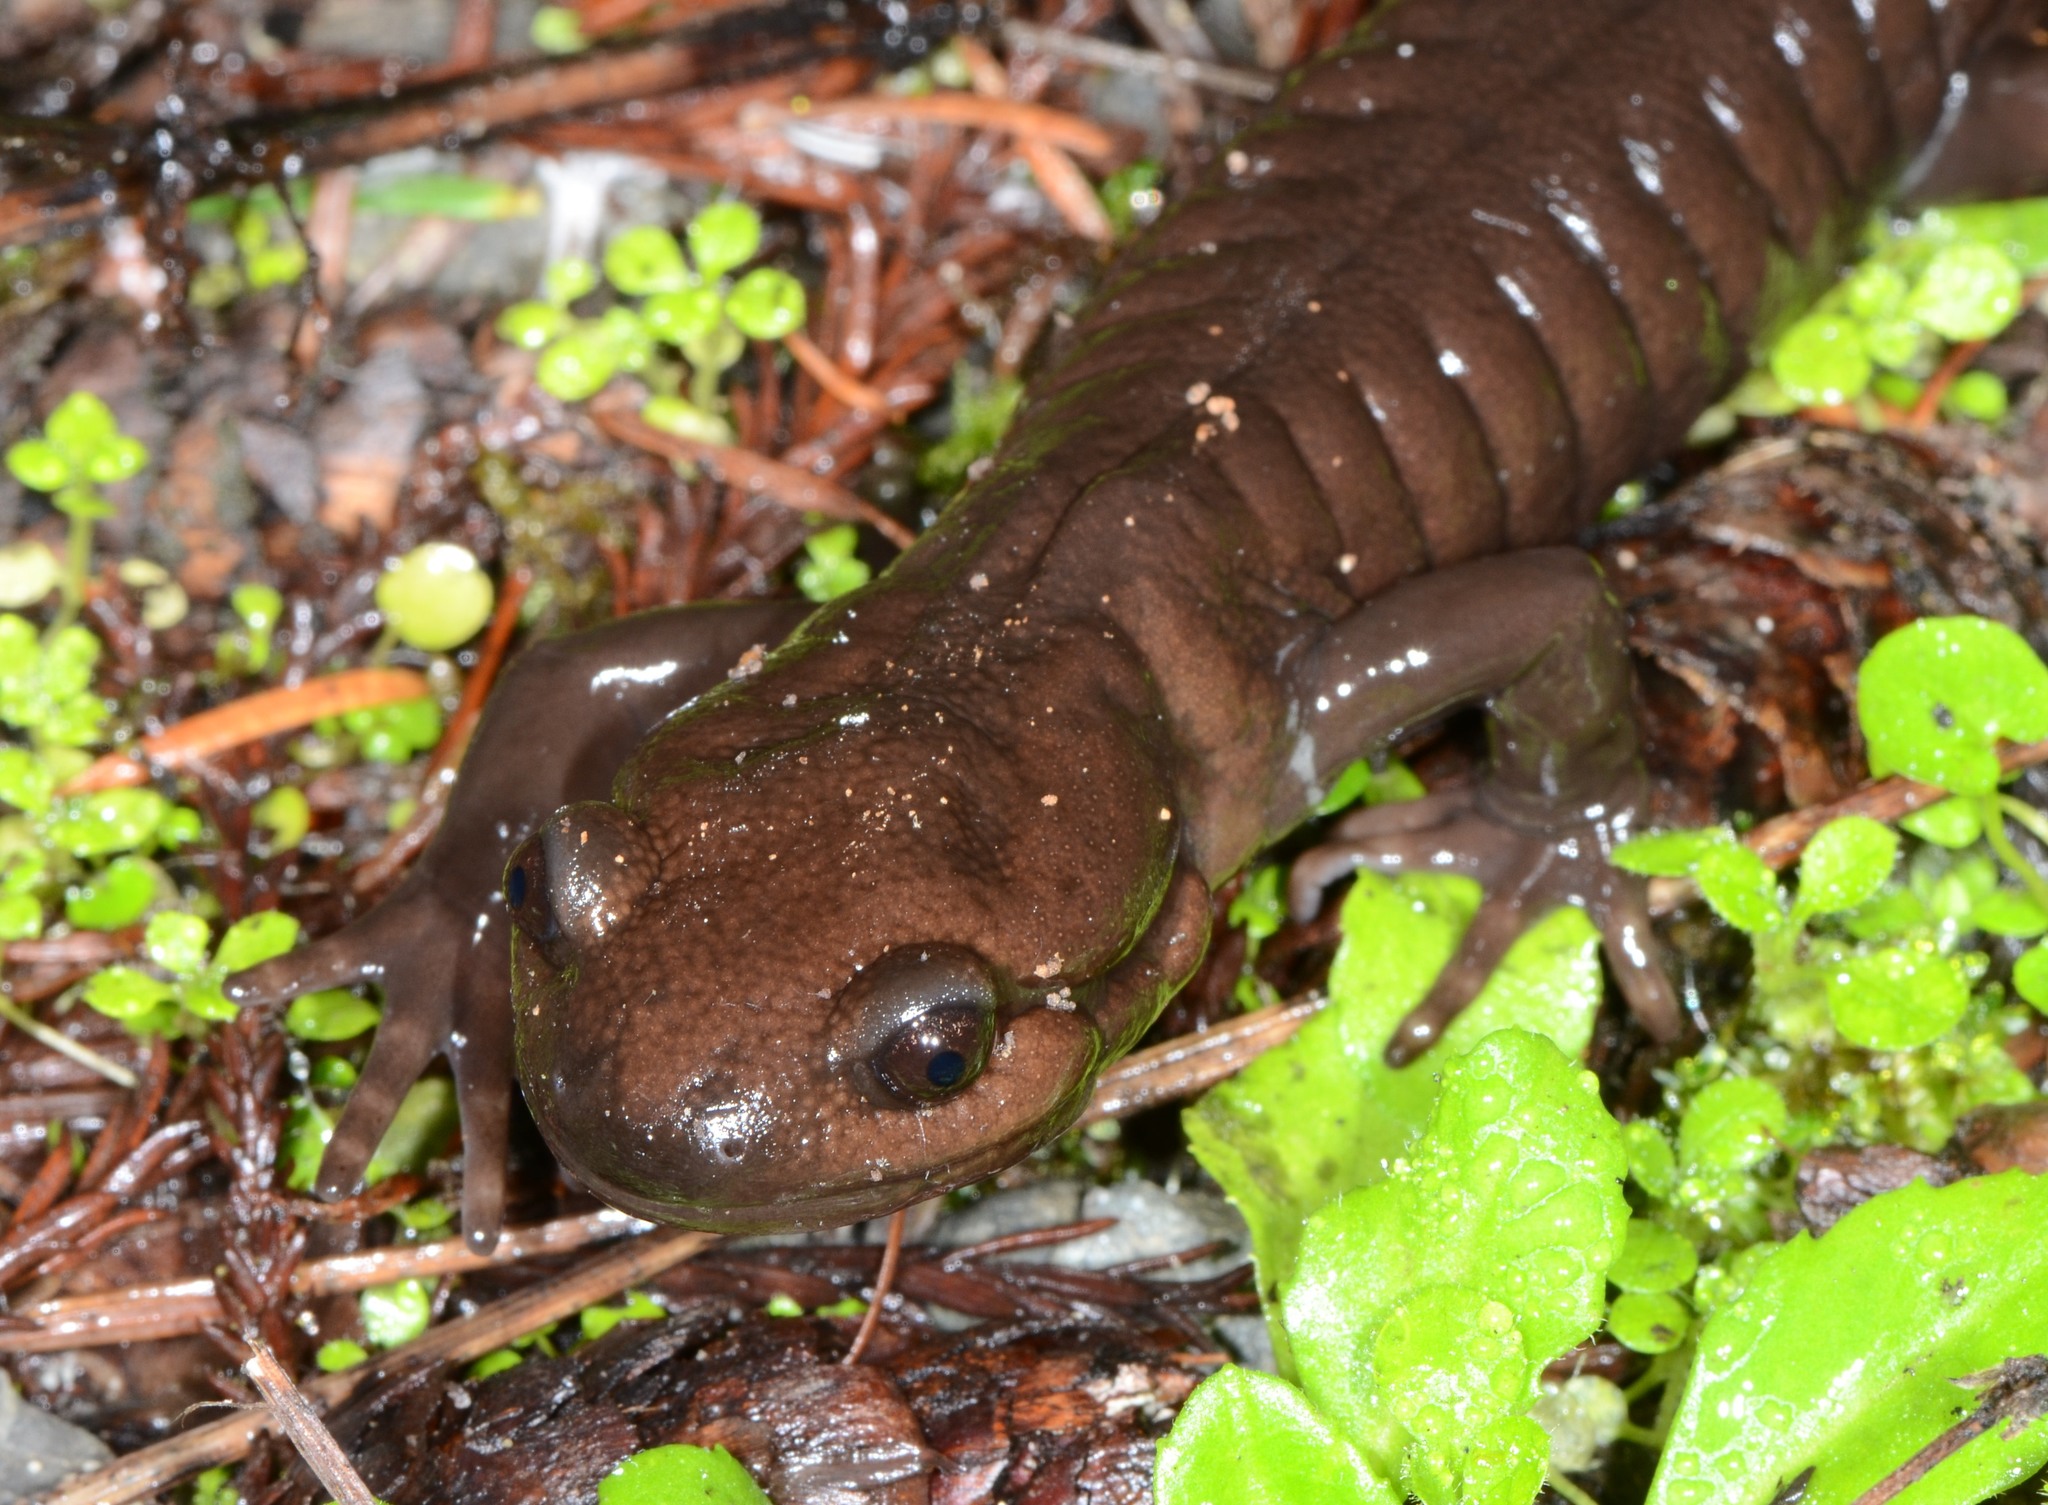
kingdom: Animalia
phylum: Chordata
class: Amphibia
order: Caudata
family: Ambystomatidae
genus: Ambystoma
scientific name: Ambystoma gracile
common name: Northwestern salamander
